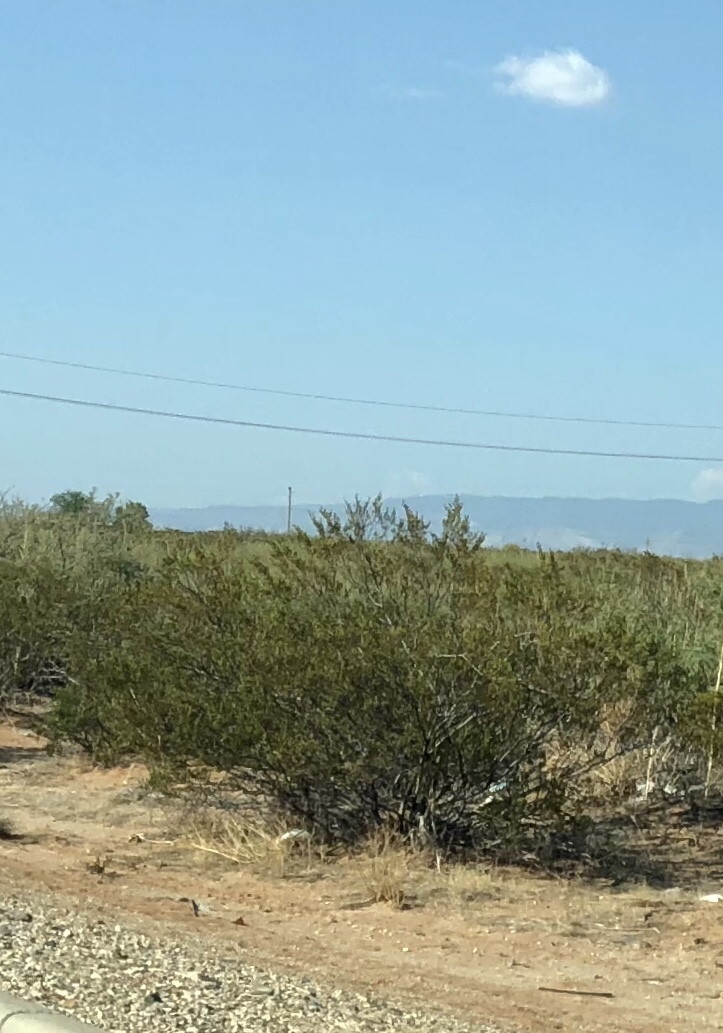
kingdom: Plantae
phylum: Tracheophyta
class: Magnoliopsida
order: Zygophyllales
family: Zygophyllaceae
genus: Larrea
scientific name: Larrea tridentata
